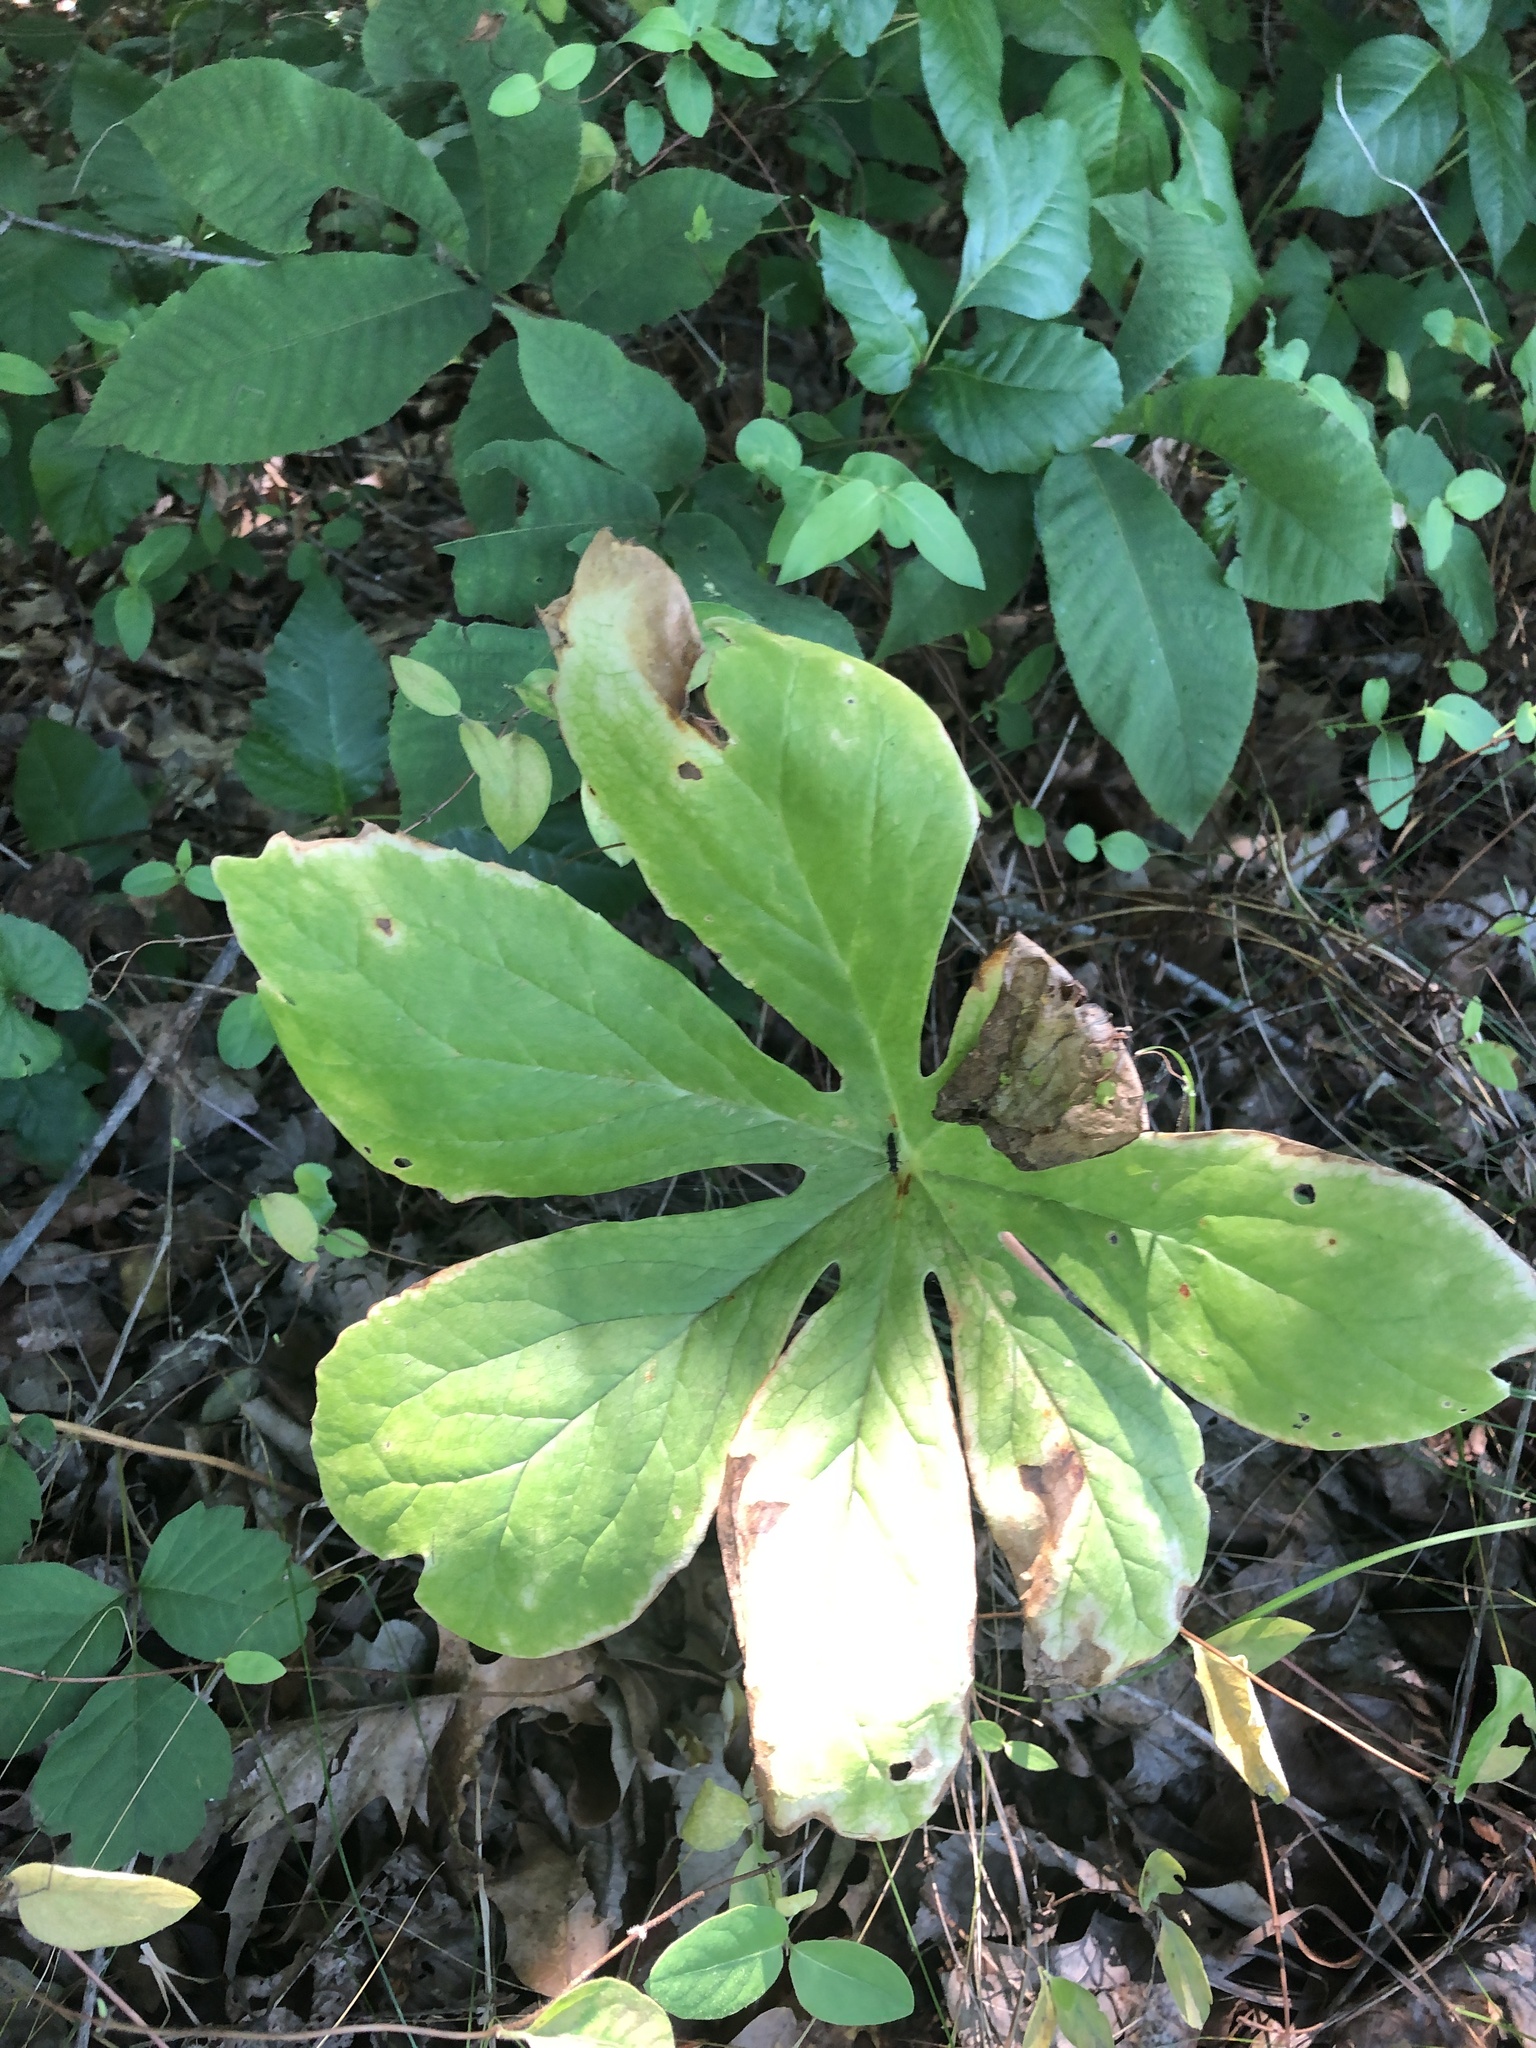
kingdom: Plantae
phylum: Tracheophyta
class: Magnoliopsida
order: Ranunculales
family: Berberidaceae
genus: Podophyllum
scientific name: Podophyllum peltatum
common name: Wild mandrake
